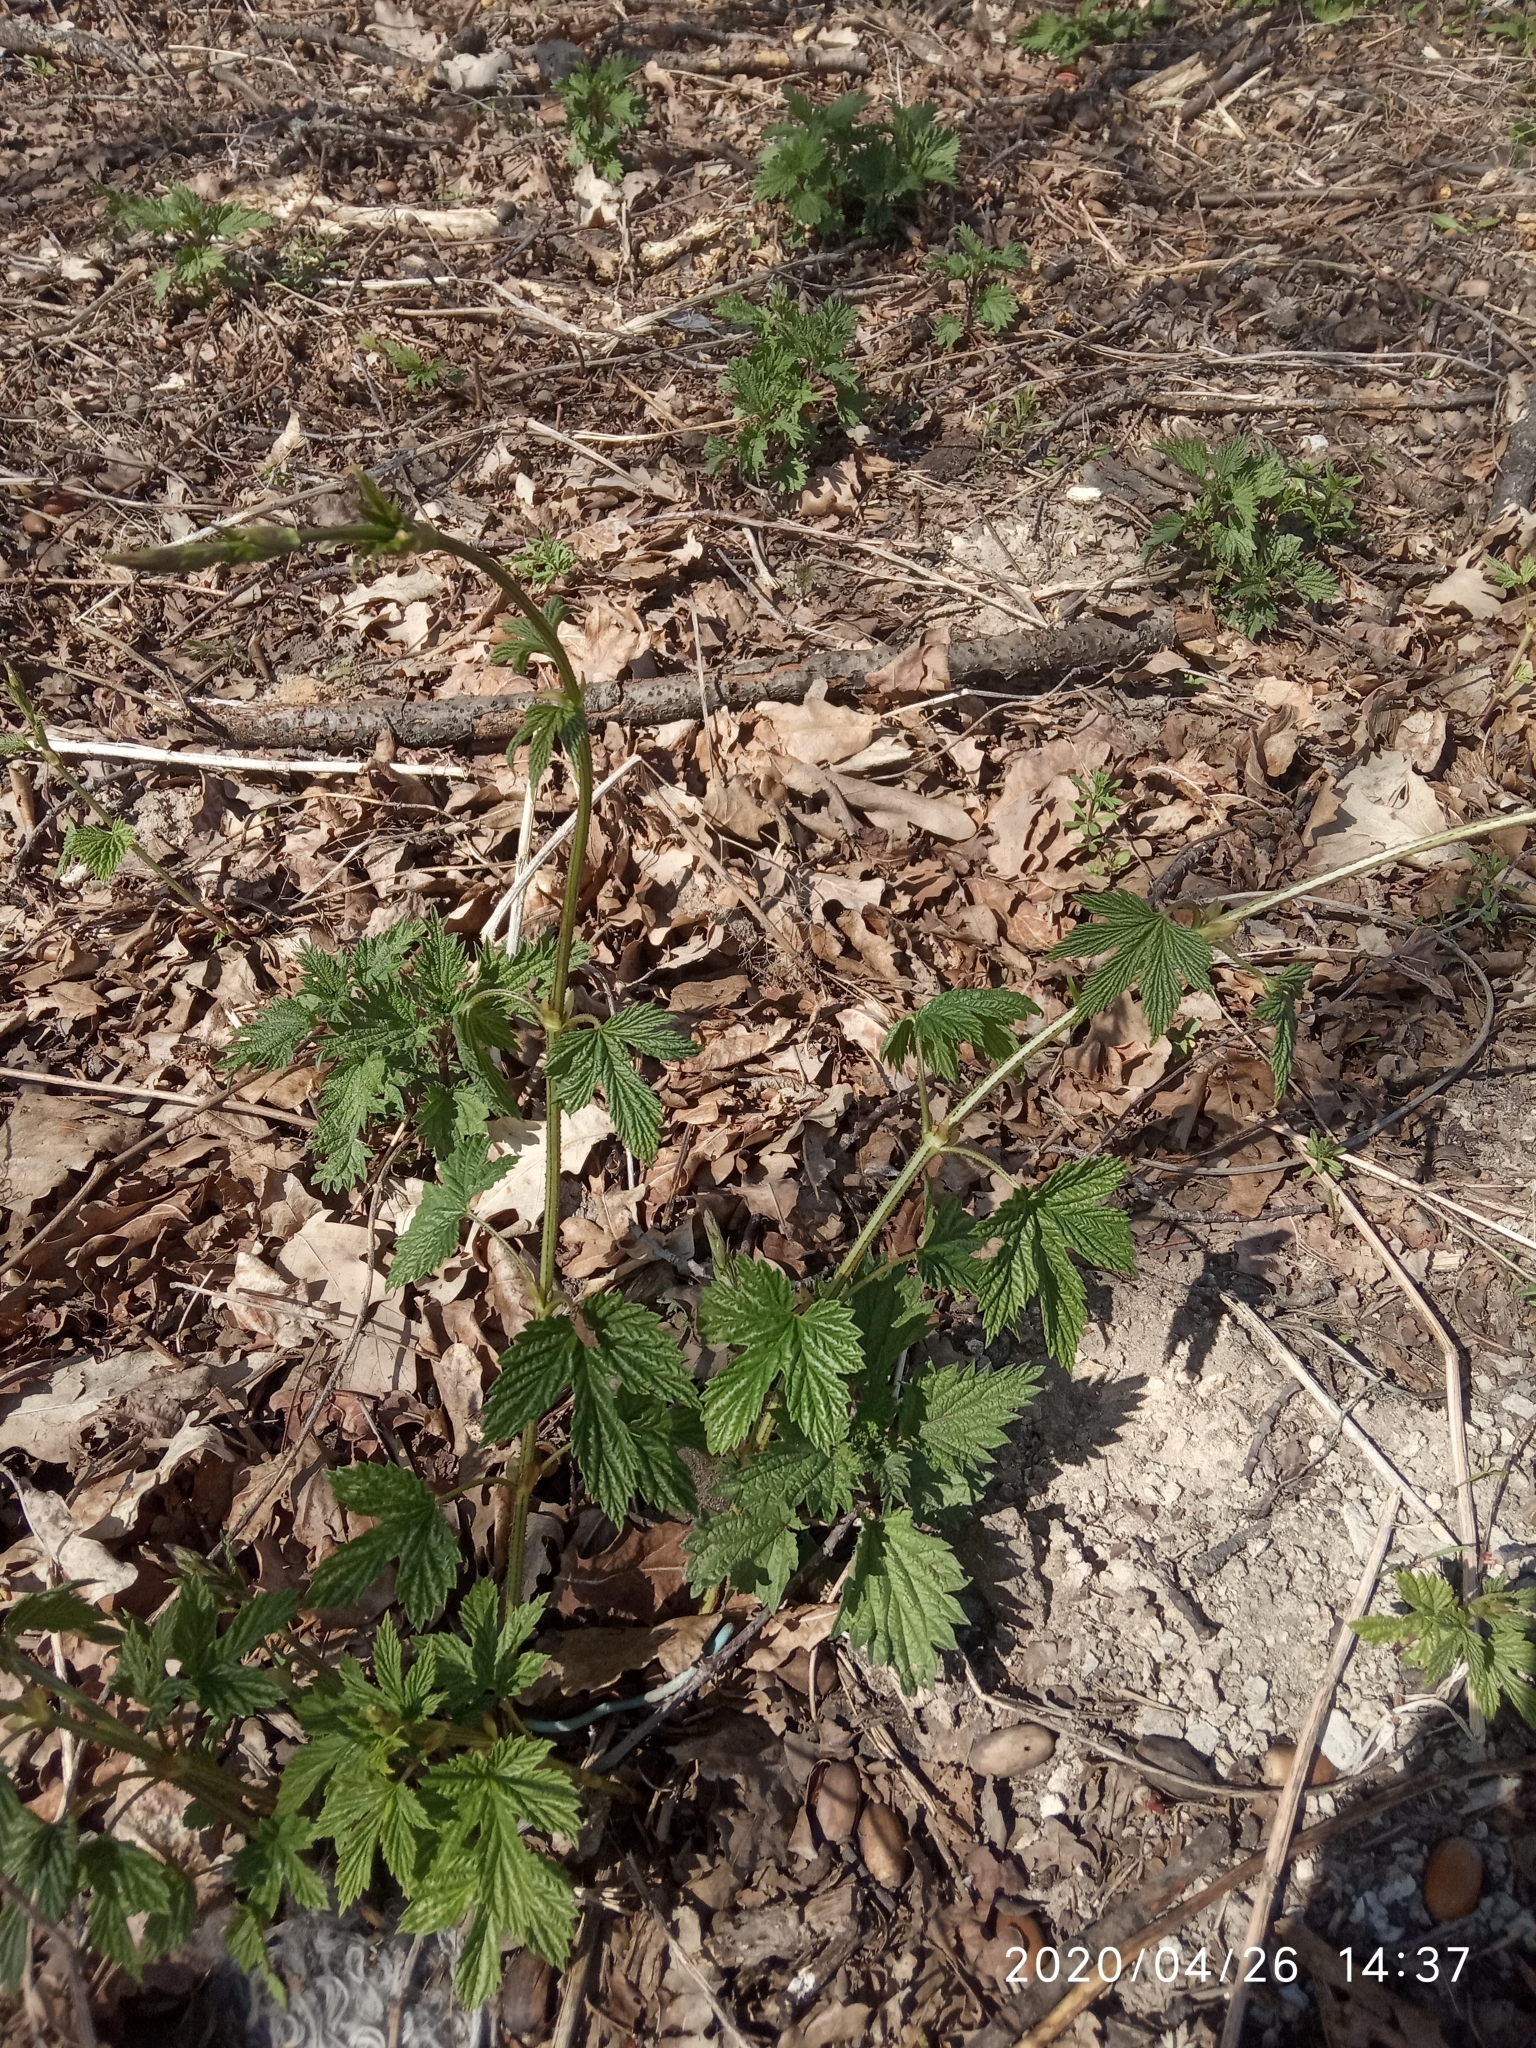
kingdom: Plantae
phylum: Tracheophyta
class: Magnoliopsida
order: Rosales
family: Cannabaceae
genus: Humulus
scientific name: Humulus lupulus
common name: Hop
